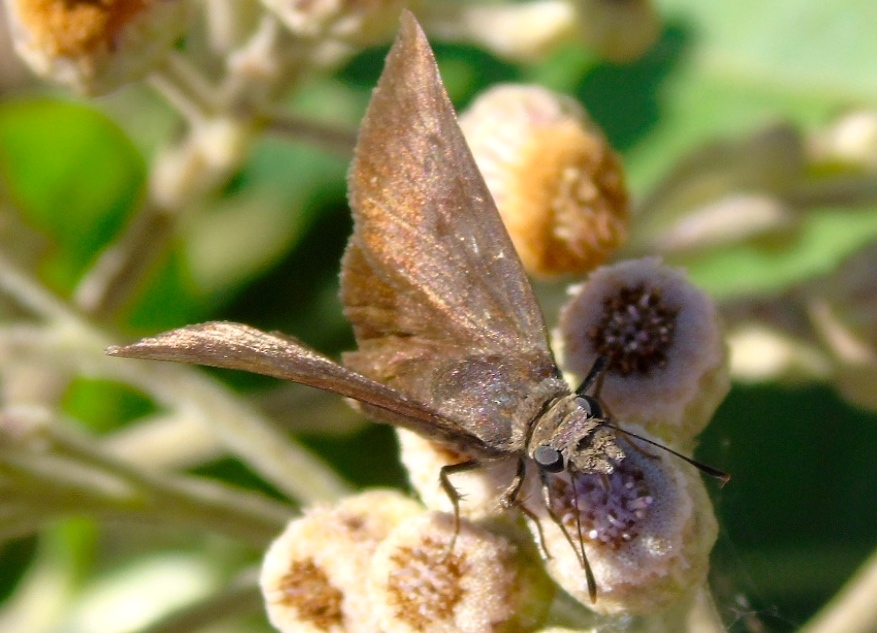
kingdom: Animalia
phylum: Arthropoda
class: Insecta
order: Lepidoptera
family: Hesperiidae
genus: Pellicia
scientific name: Pellicia costimacula
